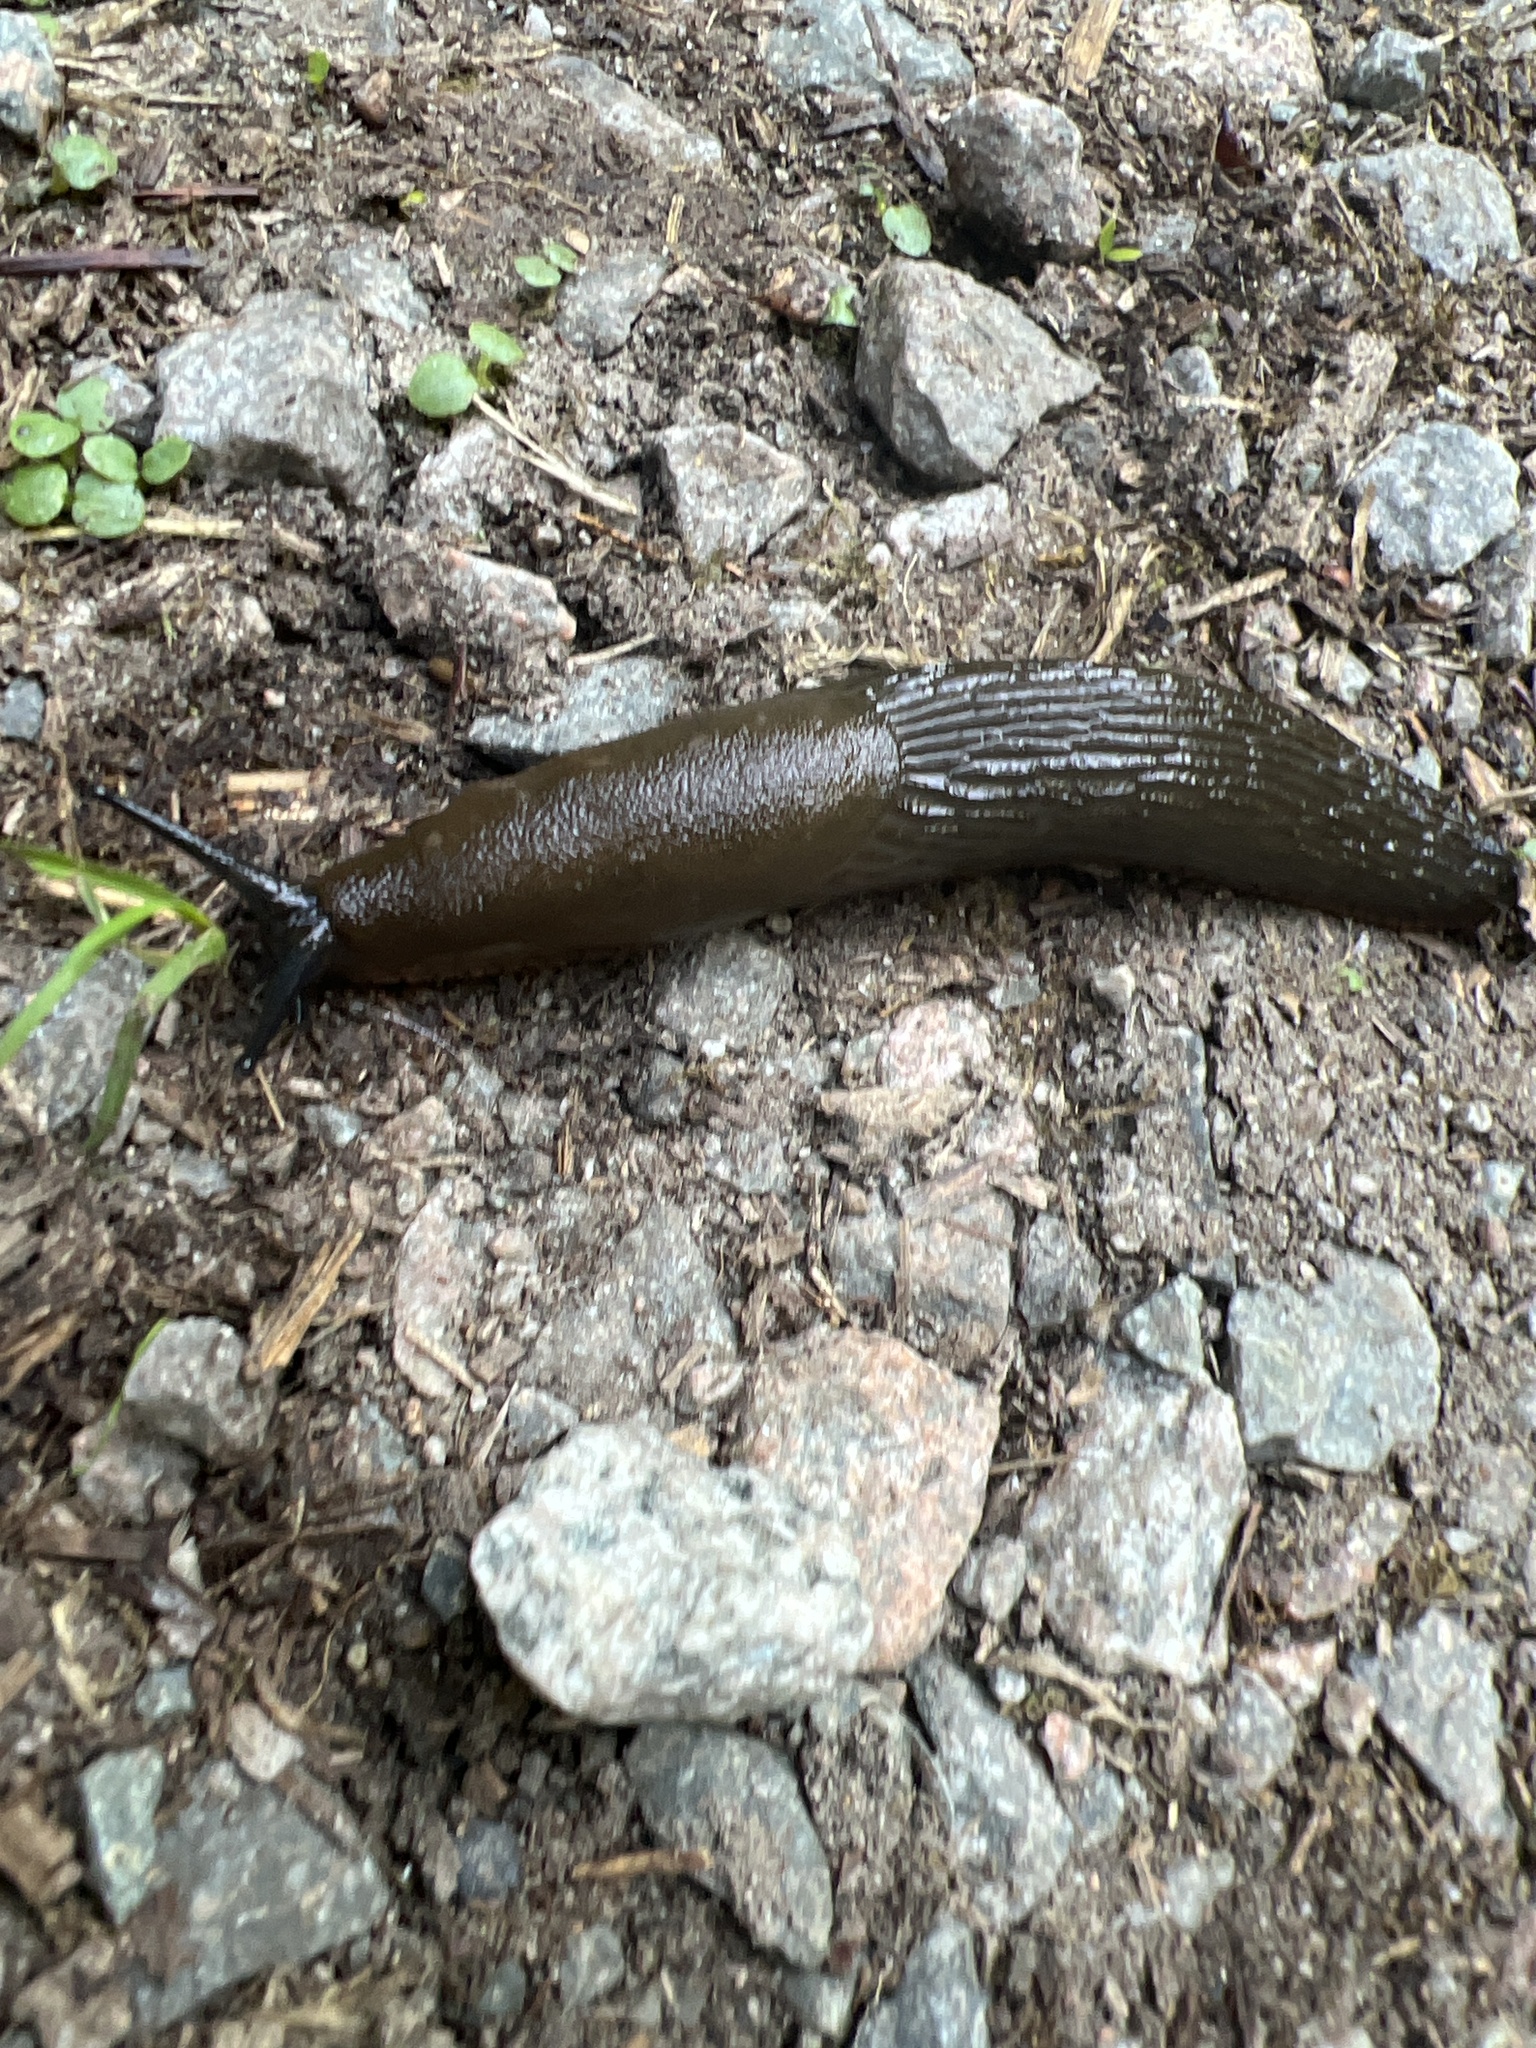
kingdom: Animalia
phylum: Mollusca
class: Gastropoda
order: Stylommatophora
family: Arionidae
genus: Arion
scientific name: Arion
